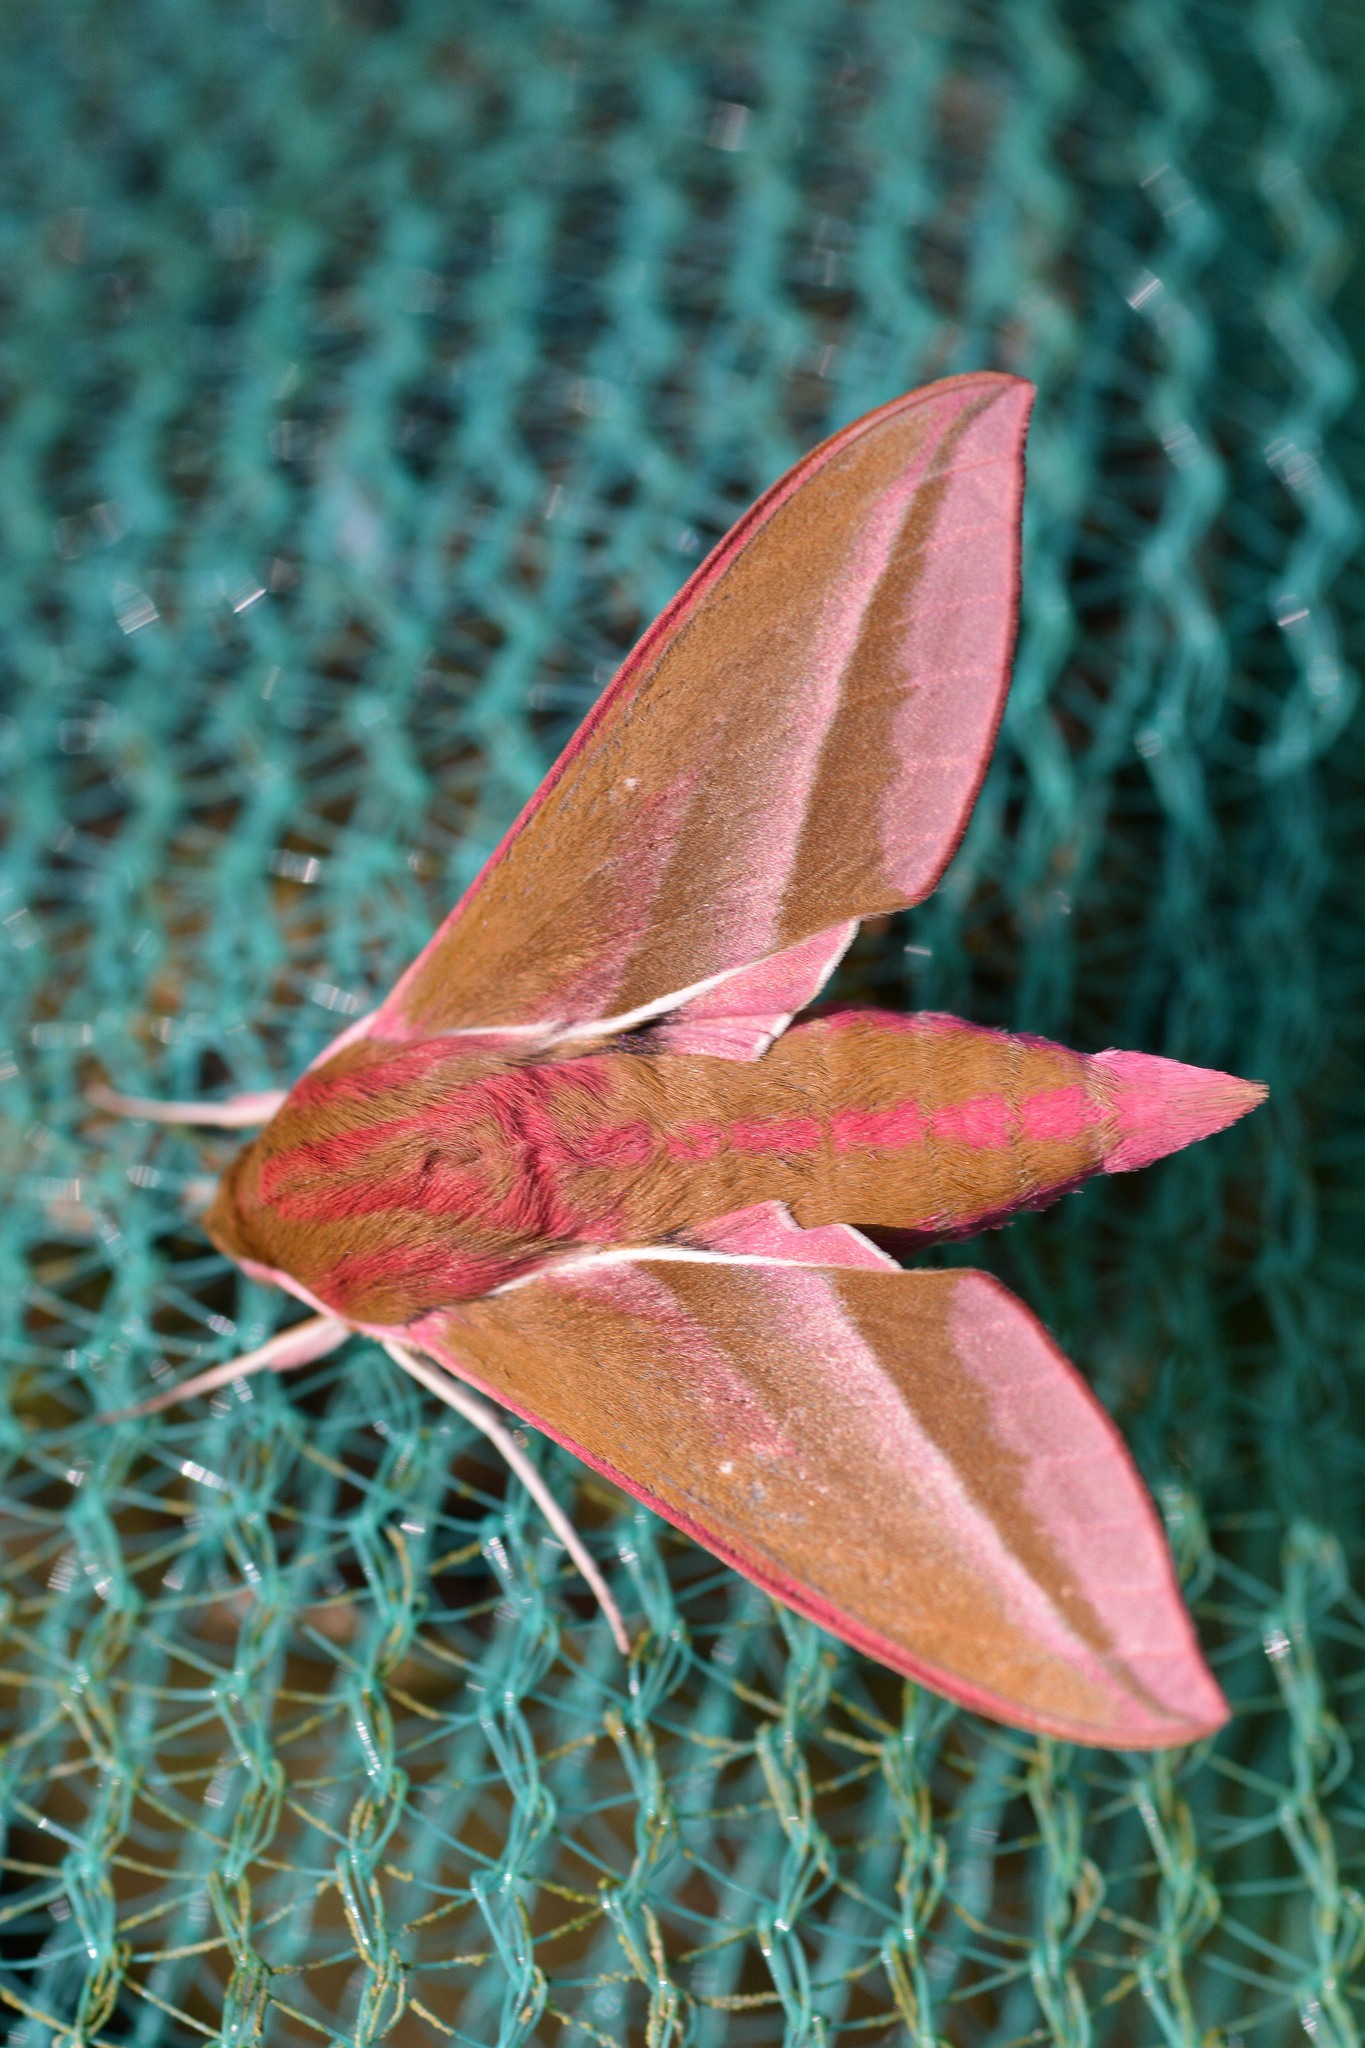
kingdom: Animalia
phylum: Arthropoda
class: Insecta
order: Lepidoptera
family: Sphingidae
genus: Deilephila
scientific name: Deilephila elpenor
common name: Elephant hawk-moth
